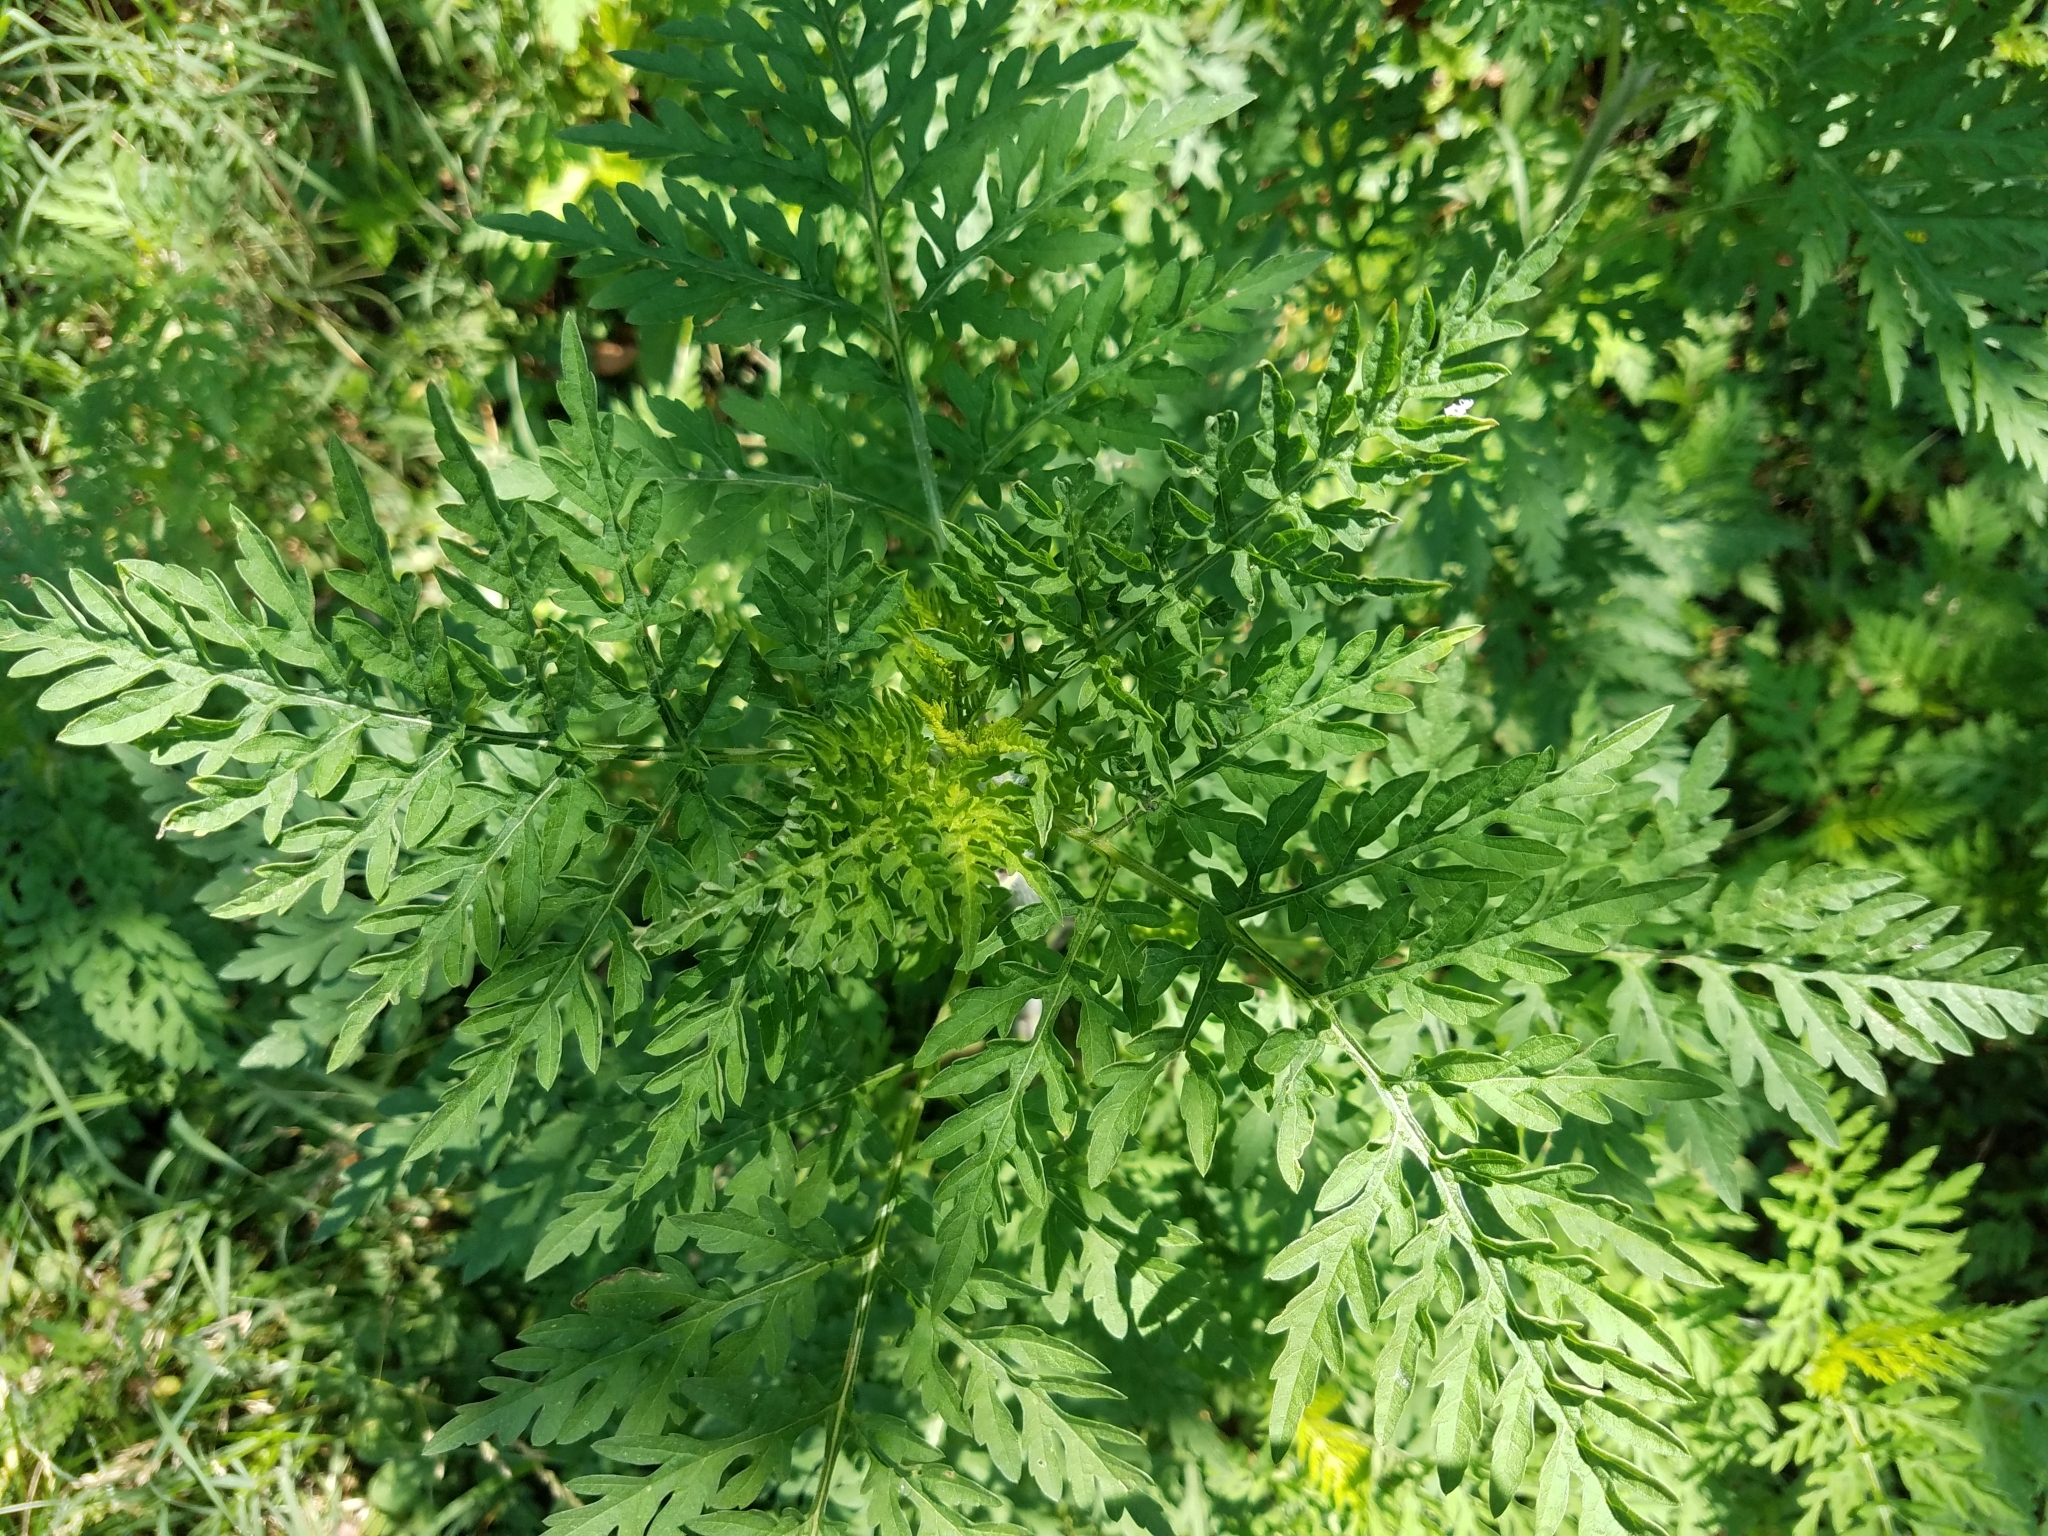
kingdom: Plantae
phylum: Tracheophyta
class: Magnoliopsida
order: Asterales
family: Asteraceae
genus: Ambrosia
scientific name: Ambrosia artemisiifolia
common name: Annual ragweed
